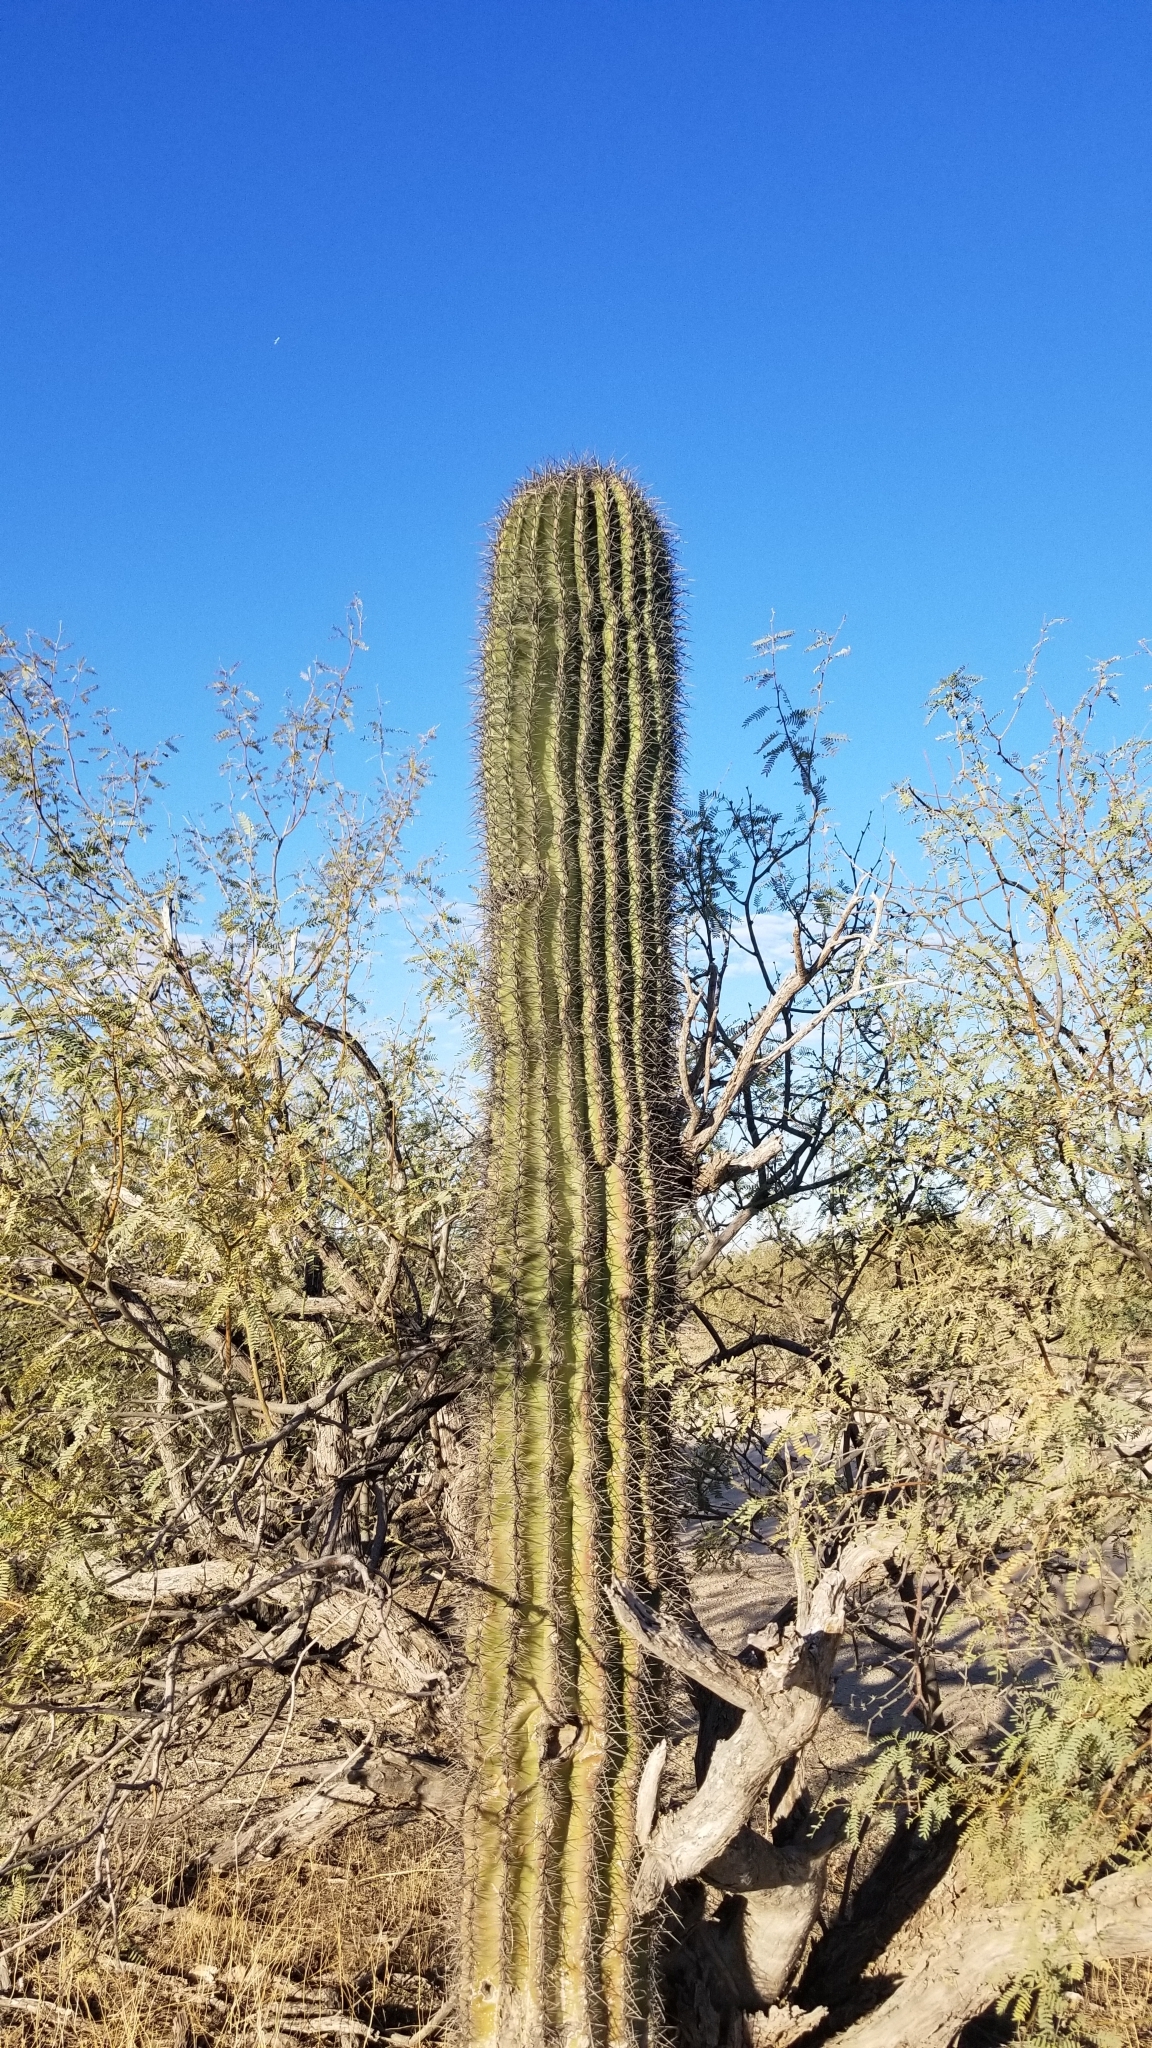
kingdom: Plantae
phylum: Tracheophyta
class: Magnoliopsida
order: Caryophyllales
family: Cactaceae
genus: Carnegiea
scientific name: Carnegiea gigantea
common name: Saguaro
